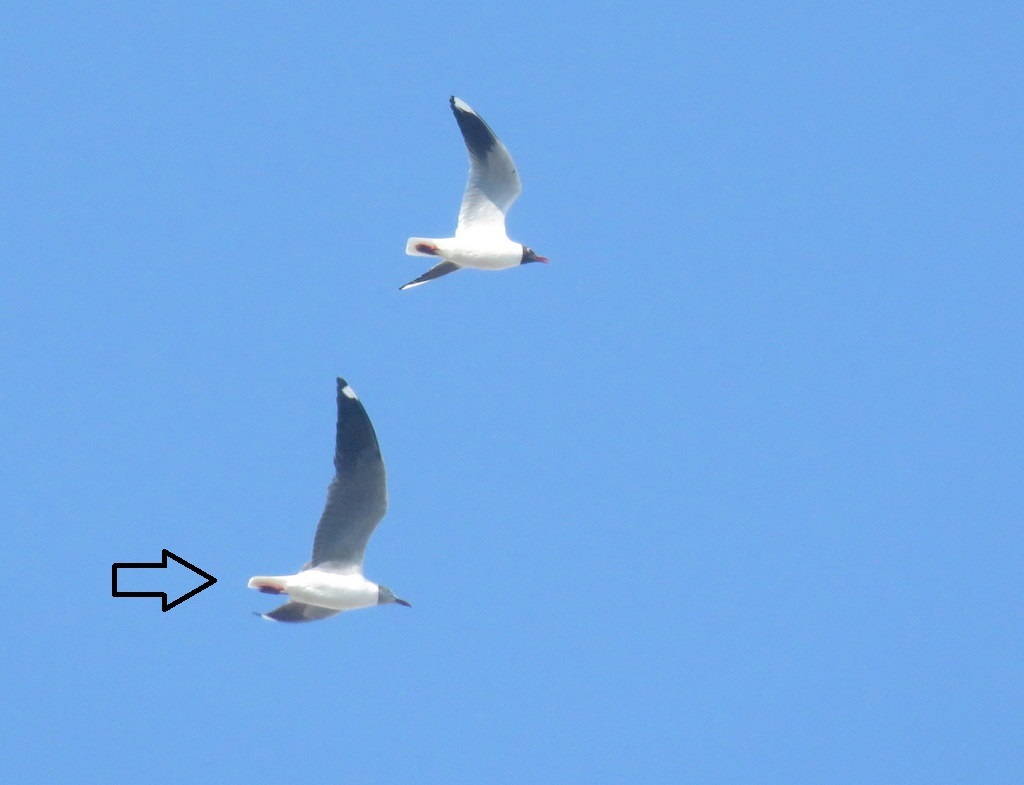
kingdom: Animalia
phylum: Chordata
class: Aves
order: Charadriiformes
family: Laridae
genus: Chroicocephalus
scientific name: Chroicocephalus cirrocephalus
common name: Grey-headed gull
